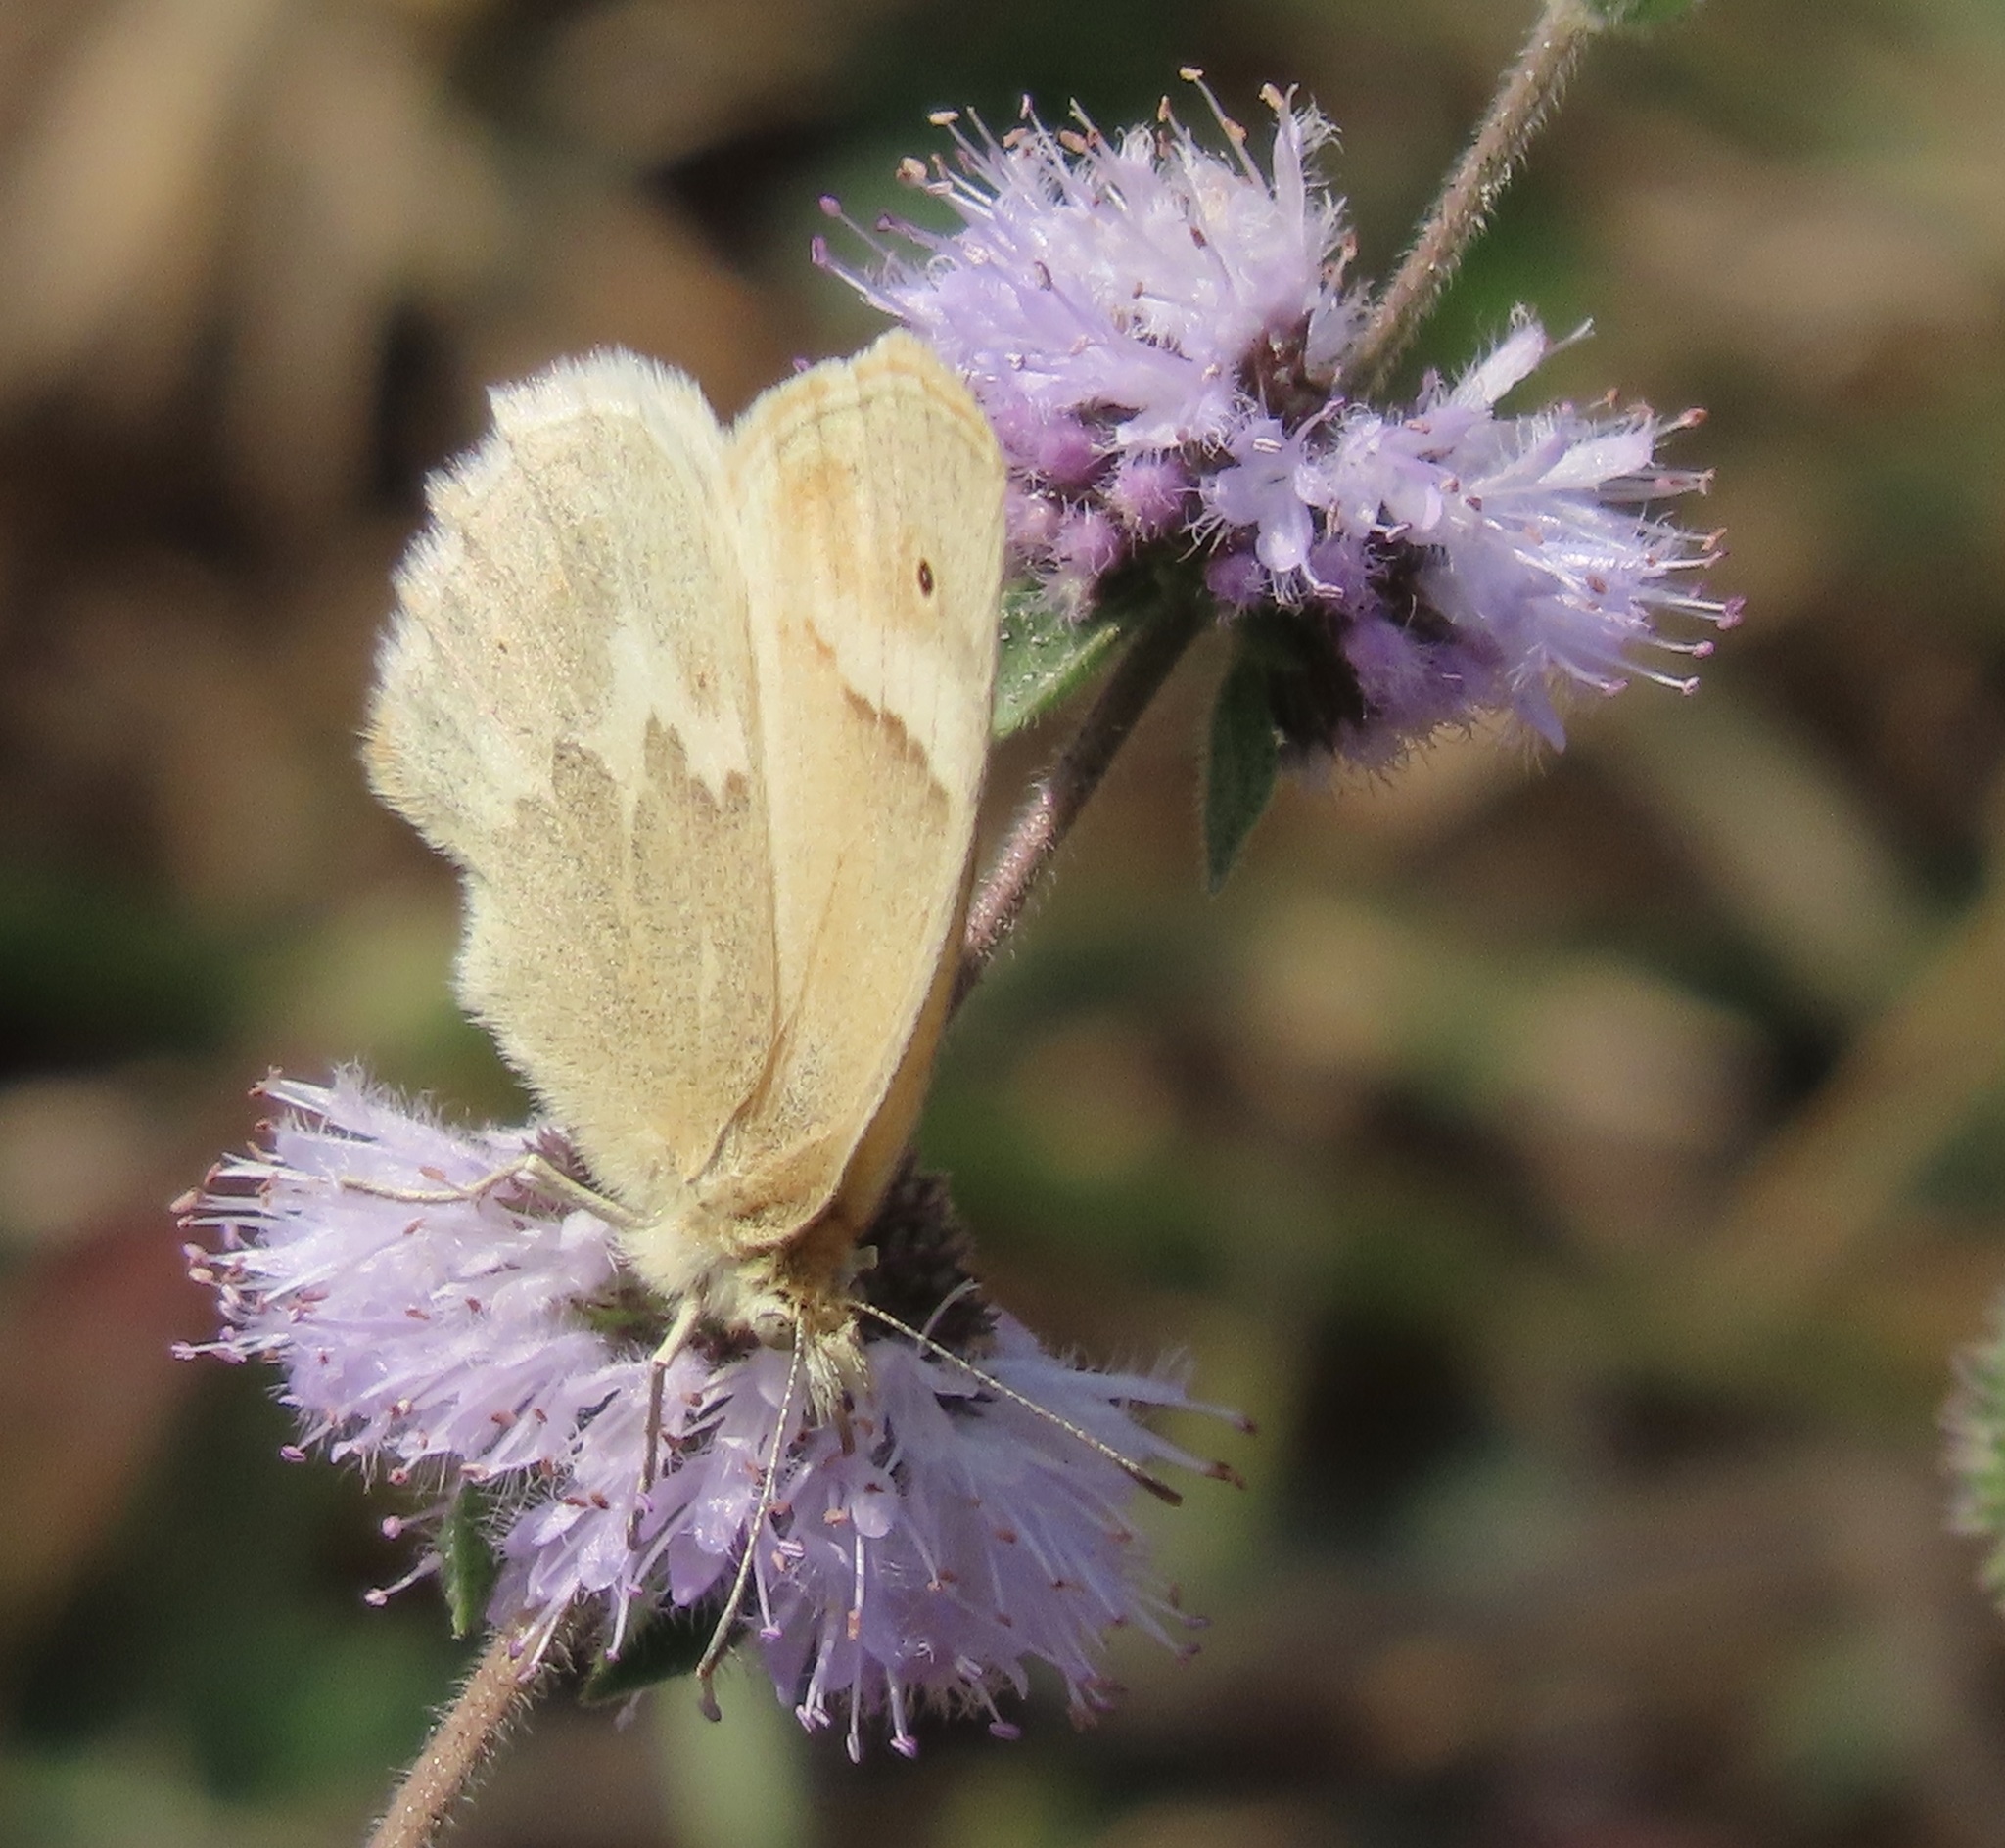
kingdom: Animalia
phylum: Arthropoda
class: Insecta
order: Lepidoptera
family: Nymphalidae
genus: Coenonympha
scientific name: Coenonympha california
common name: Common ringlet
